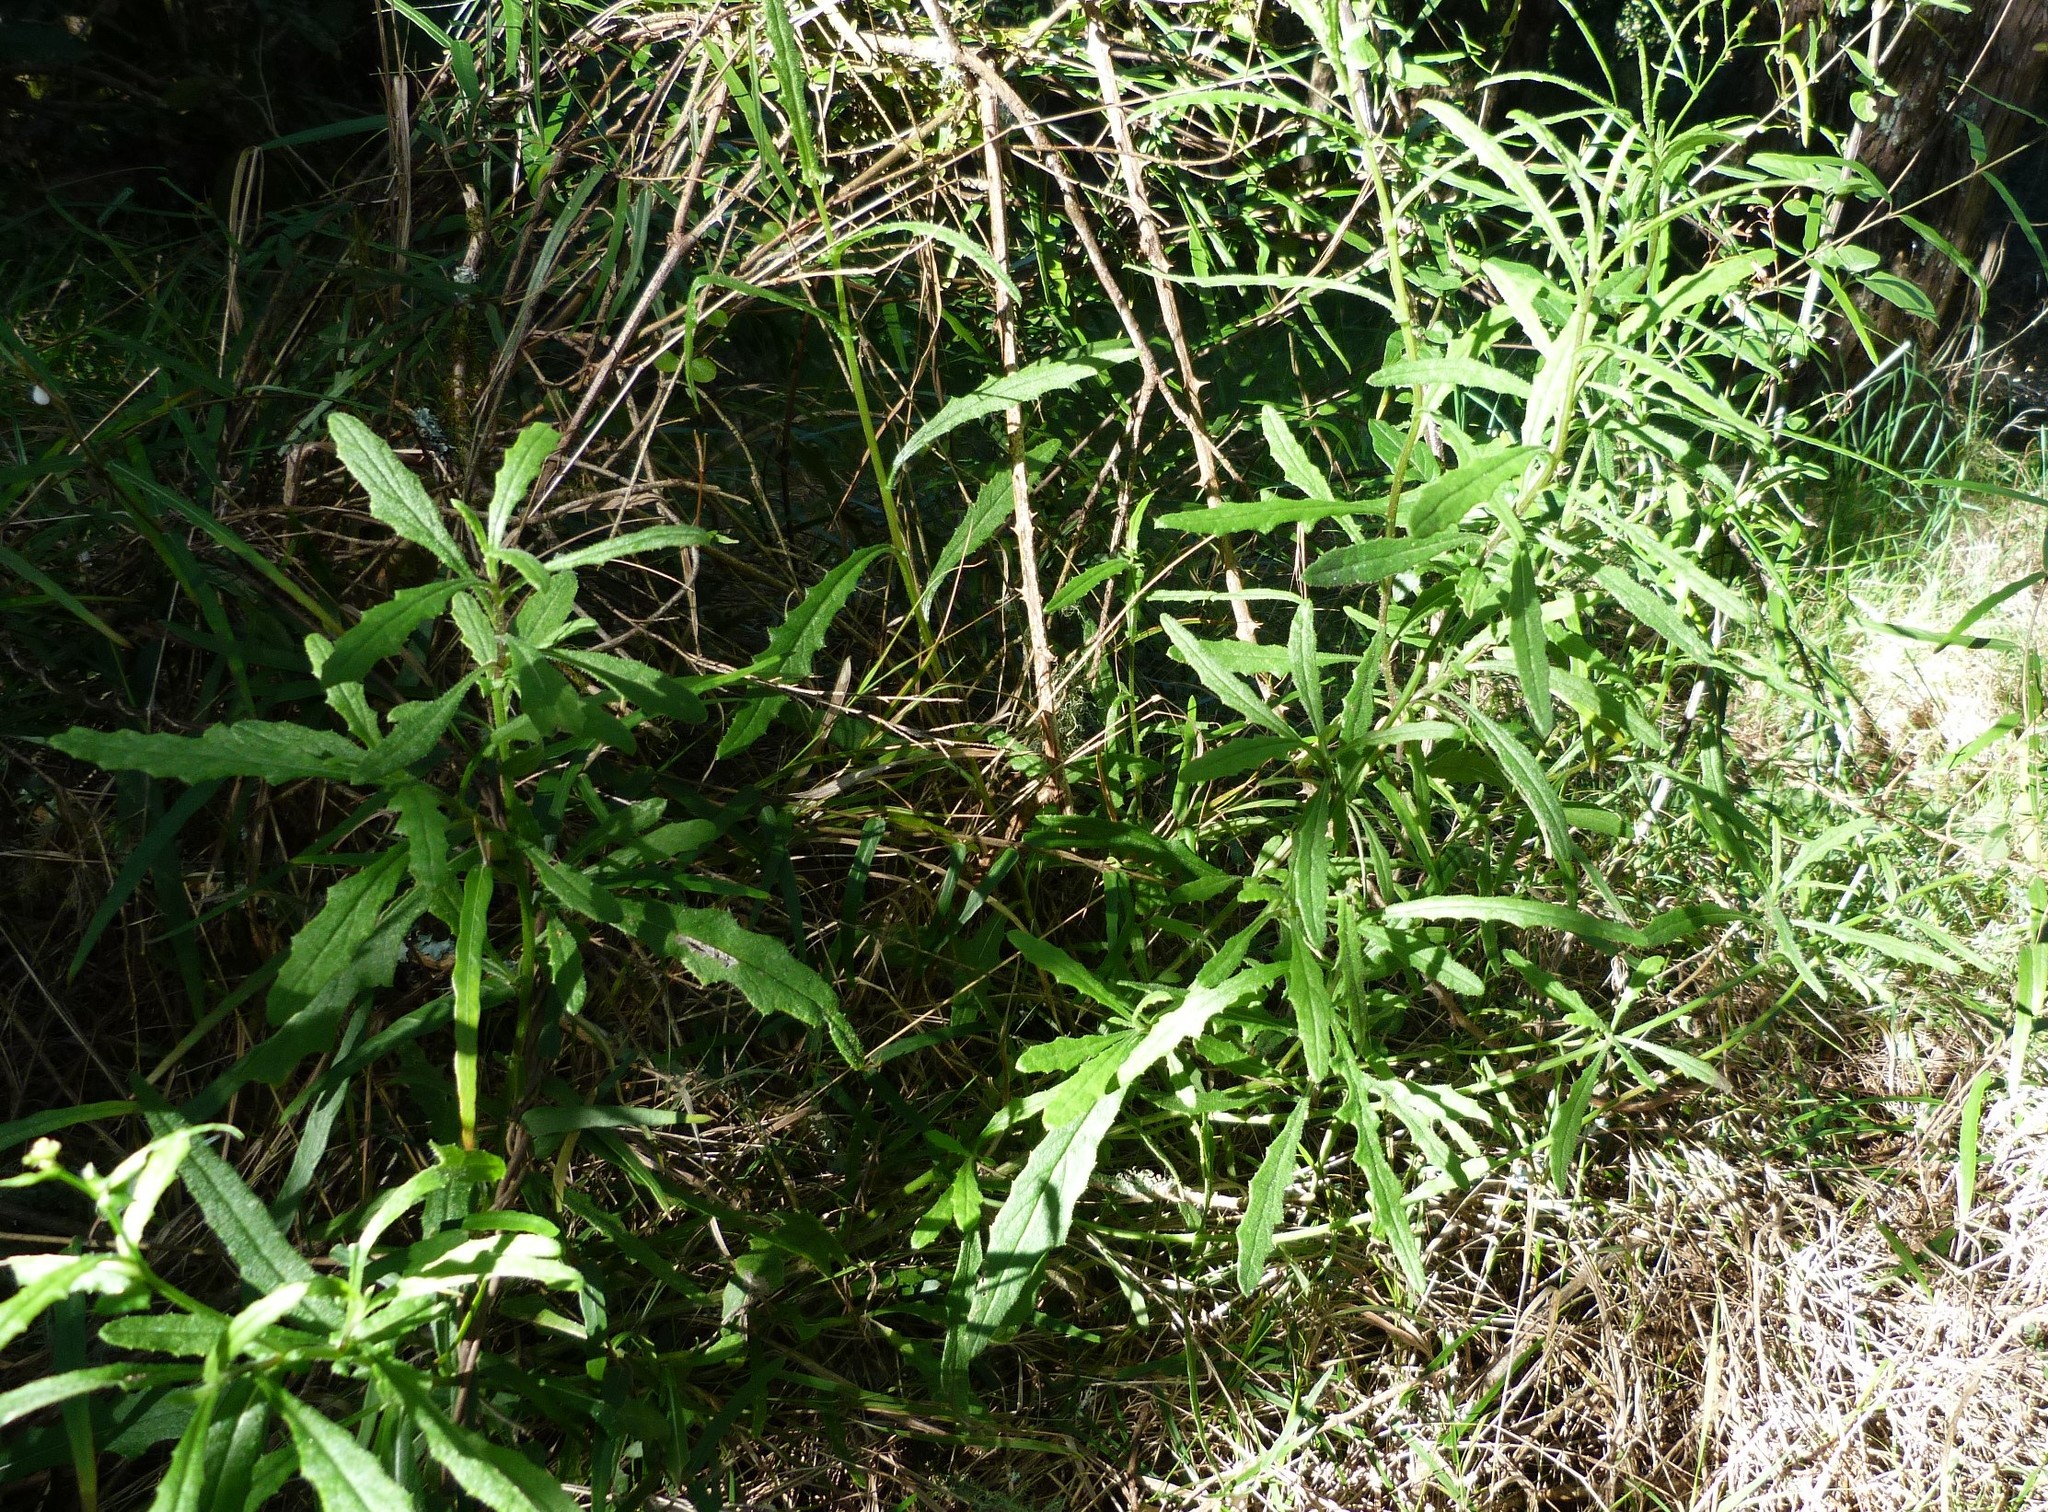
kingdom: Plantae
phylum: Tracheophyta
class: Magnoliopsida
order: Asterales
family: Asteraceae
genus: Senecio
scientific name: Senecio hispidulus
